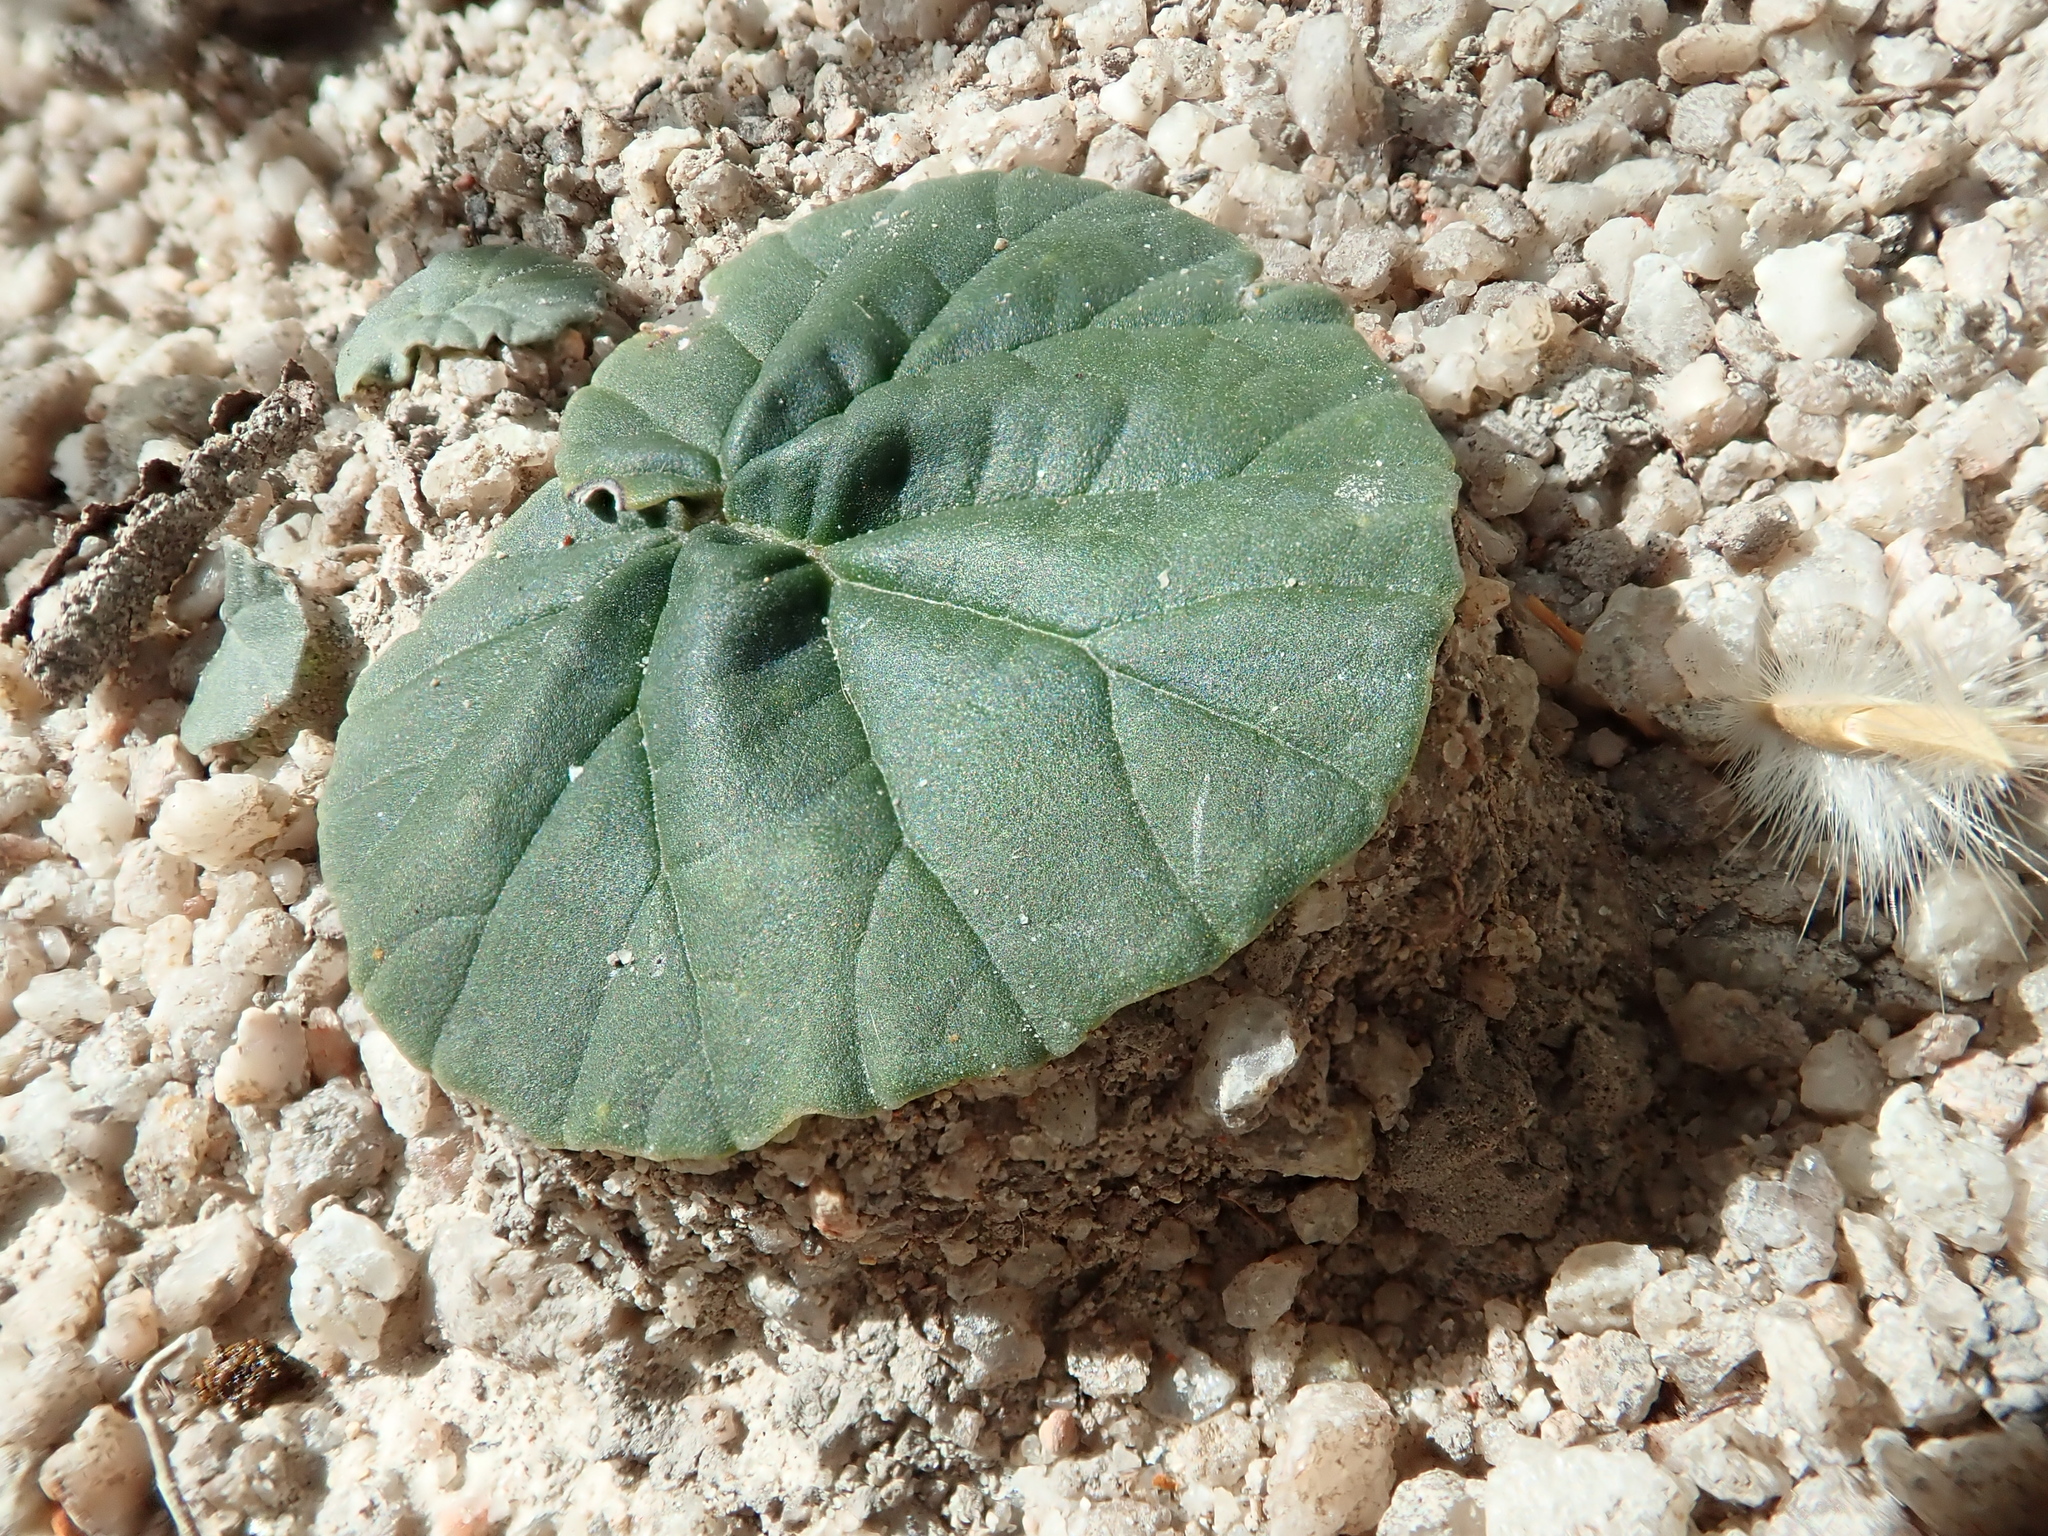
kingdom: Plantae
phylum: Tracheophyta
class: Magnoliopsida
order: Rosales
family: Moraceae
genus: Dorstenia
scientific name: Dorstenia cayapia
